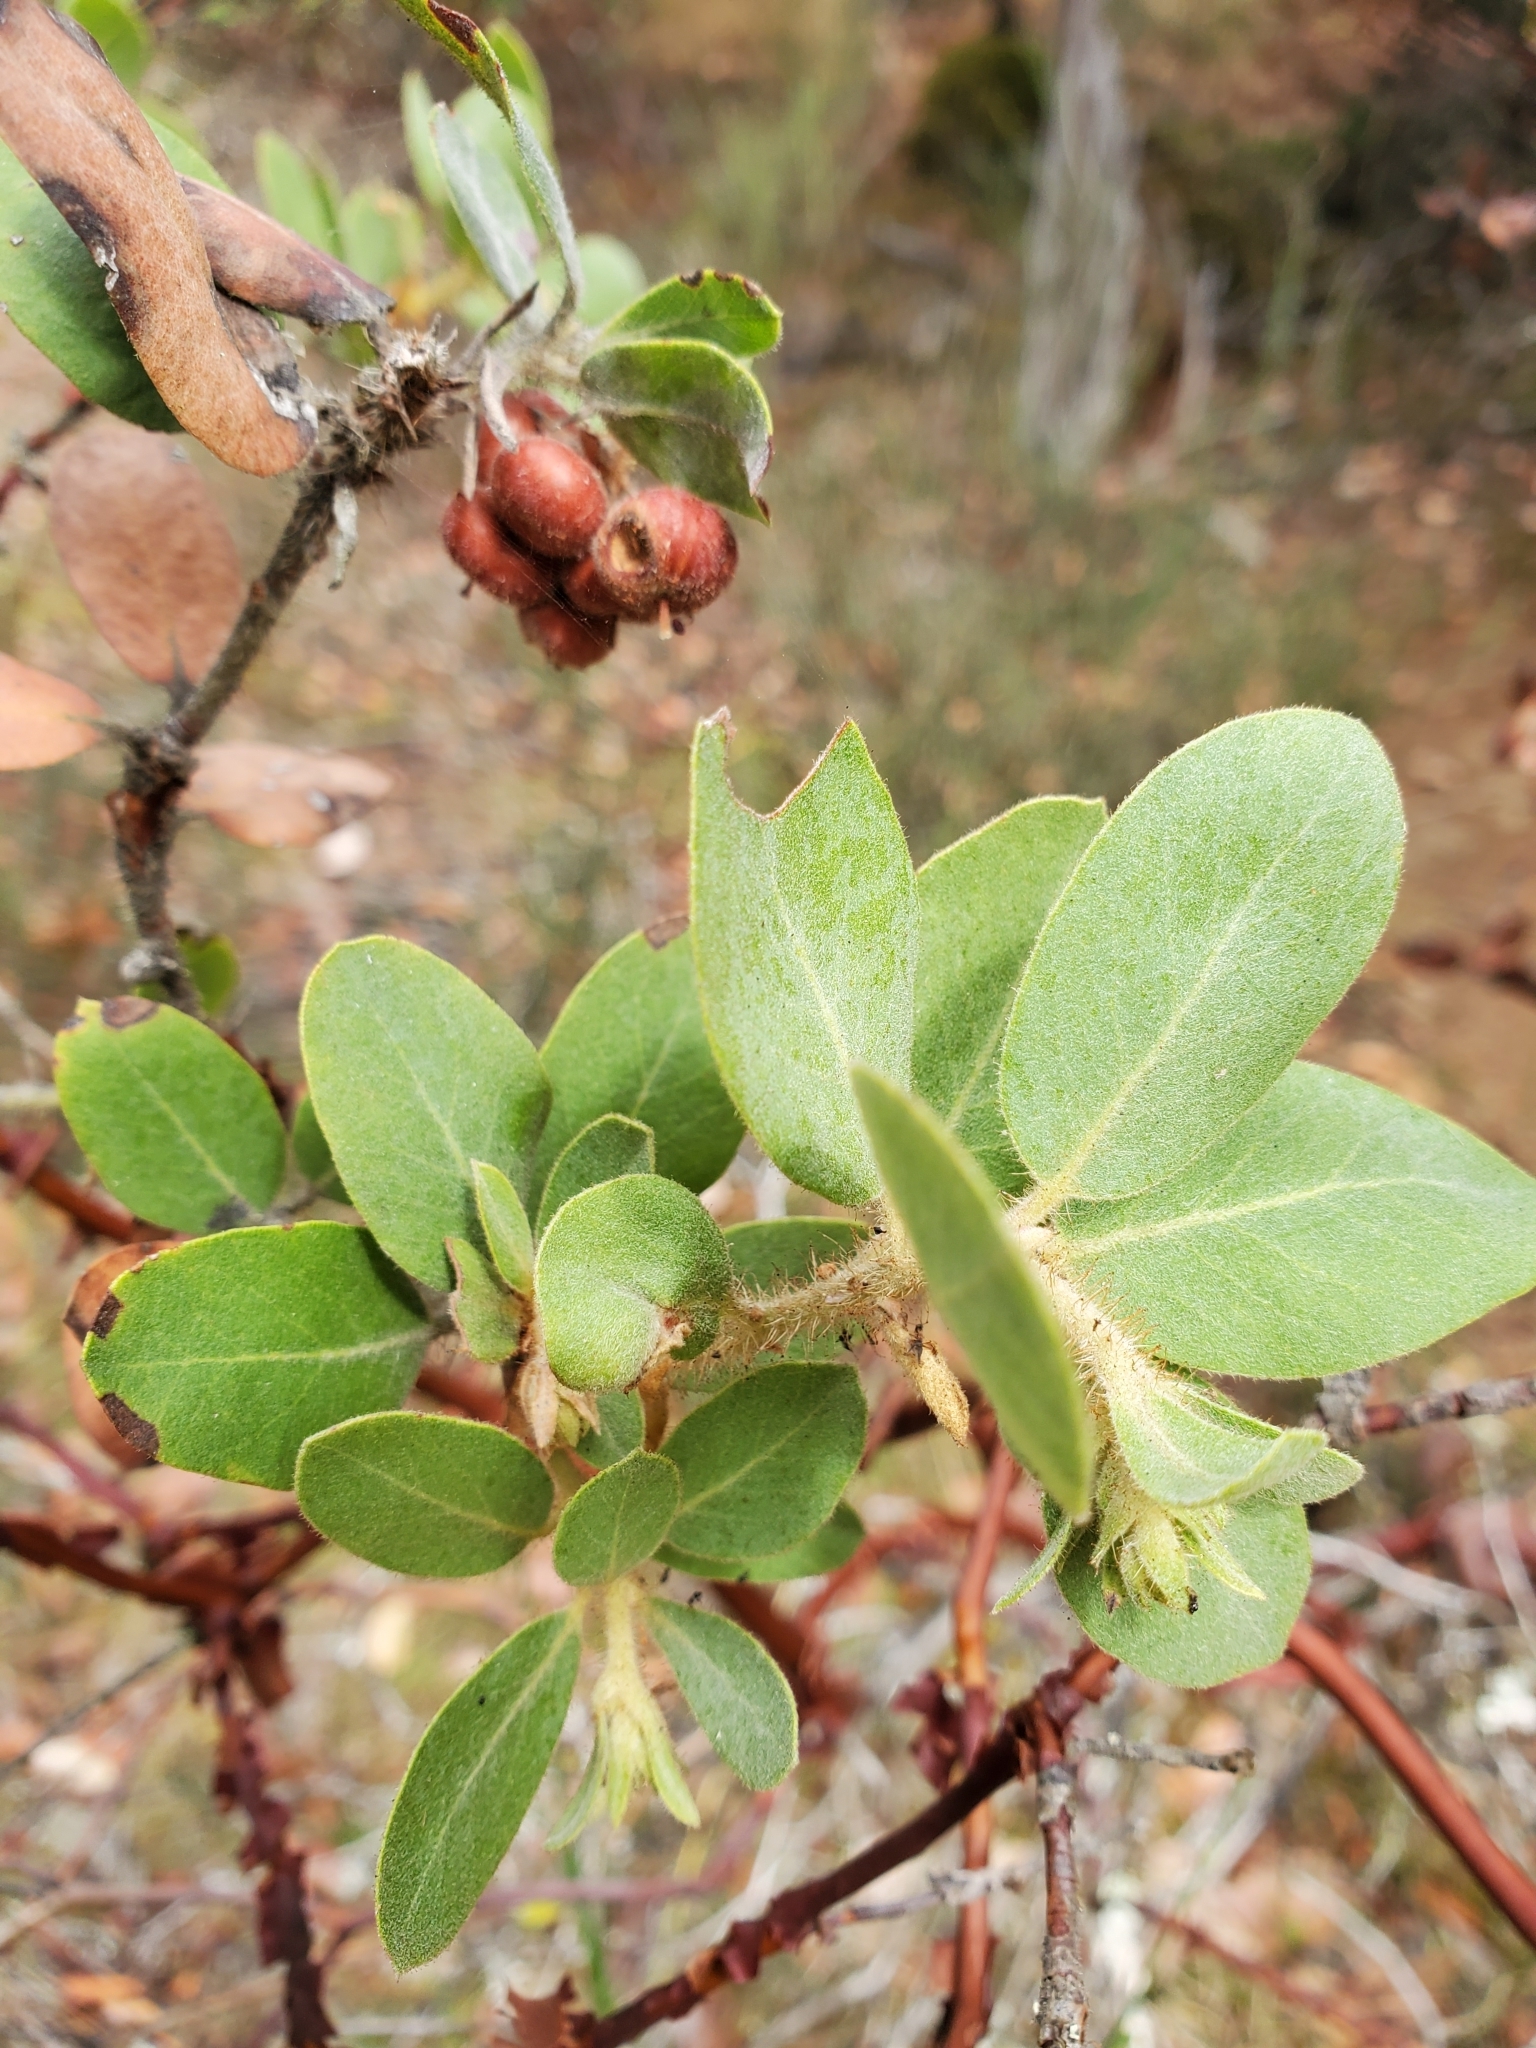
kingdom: Plantae
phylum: Tracheophyta
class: Magnoliopsida
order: Ericales
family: Ericaceae
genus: Arctostaphylos
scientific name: Arctostaphylos columbiana
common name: Bristly bearberry
